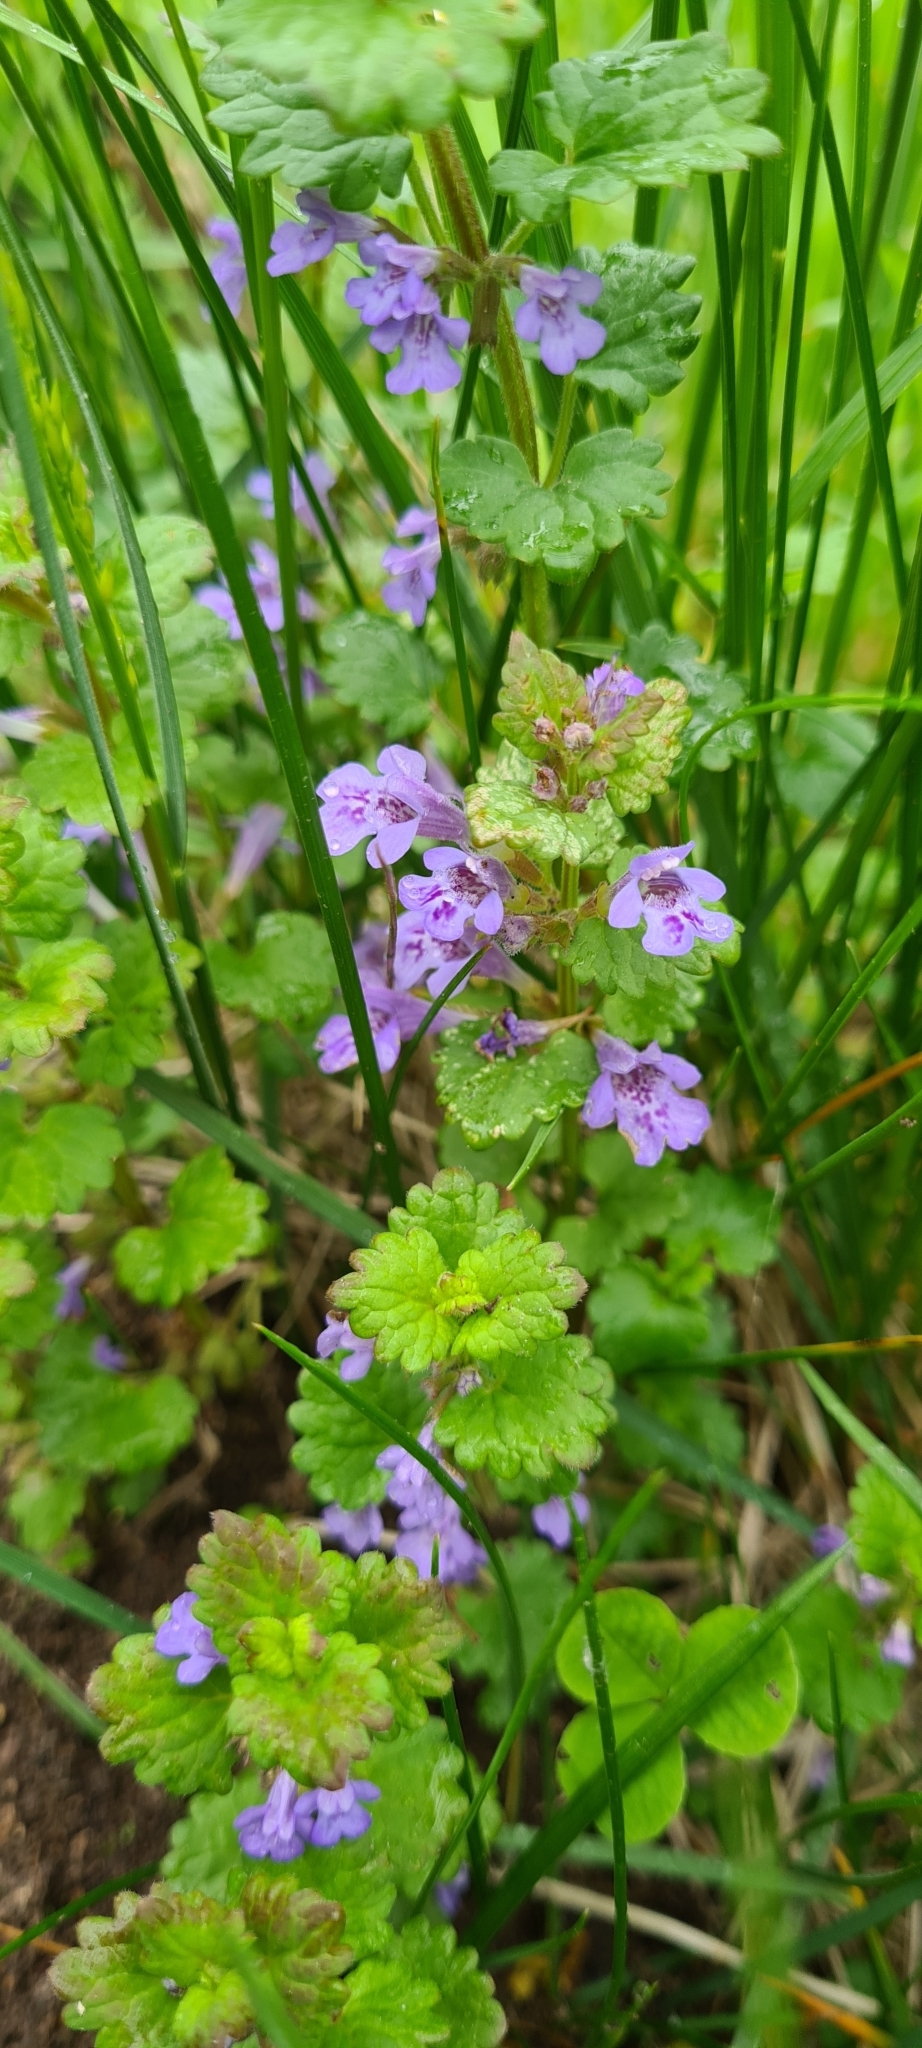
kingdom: Plantae
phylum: Tracheophyta
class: Magnoliopsida
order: Lamiales
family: Lamiaceae
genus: Glechoma
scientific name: Glechoma hederacea
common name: Ground ivy
